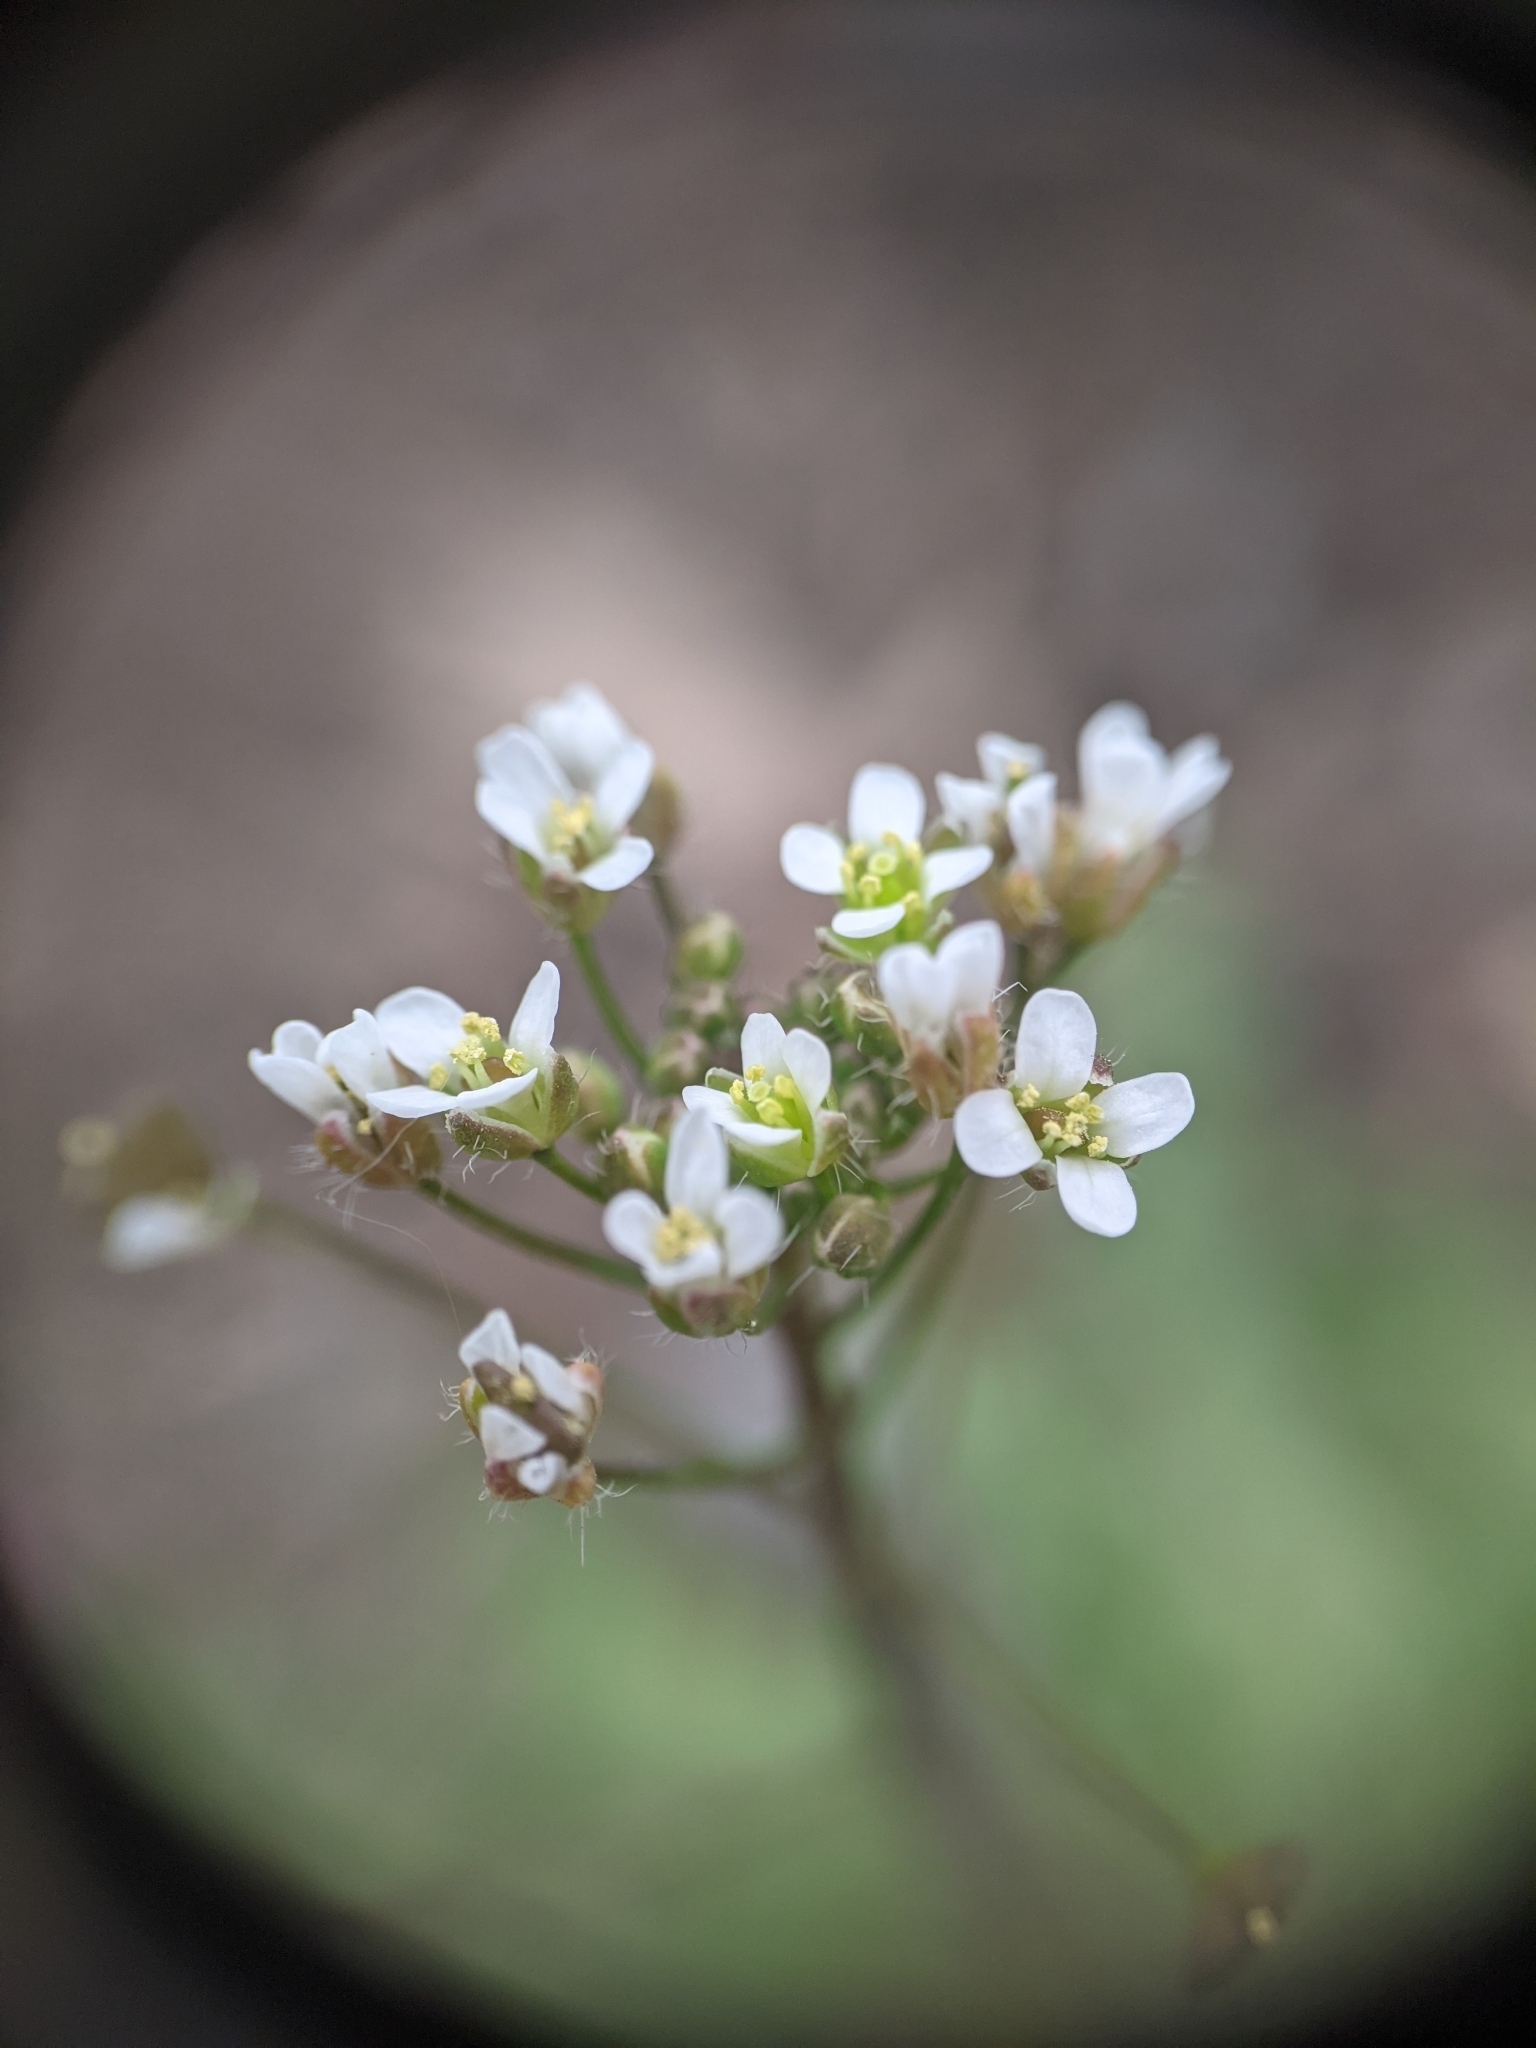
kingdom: Plantae
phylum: Tracheophyta
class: Magnoliopsida
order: Brassicales
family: Brassicaceae
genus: Capsella
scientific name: Capsella bursa-pastoris
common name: Shepherd's purse
